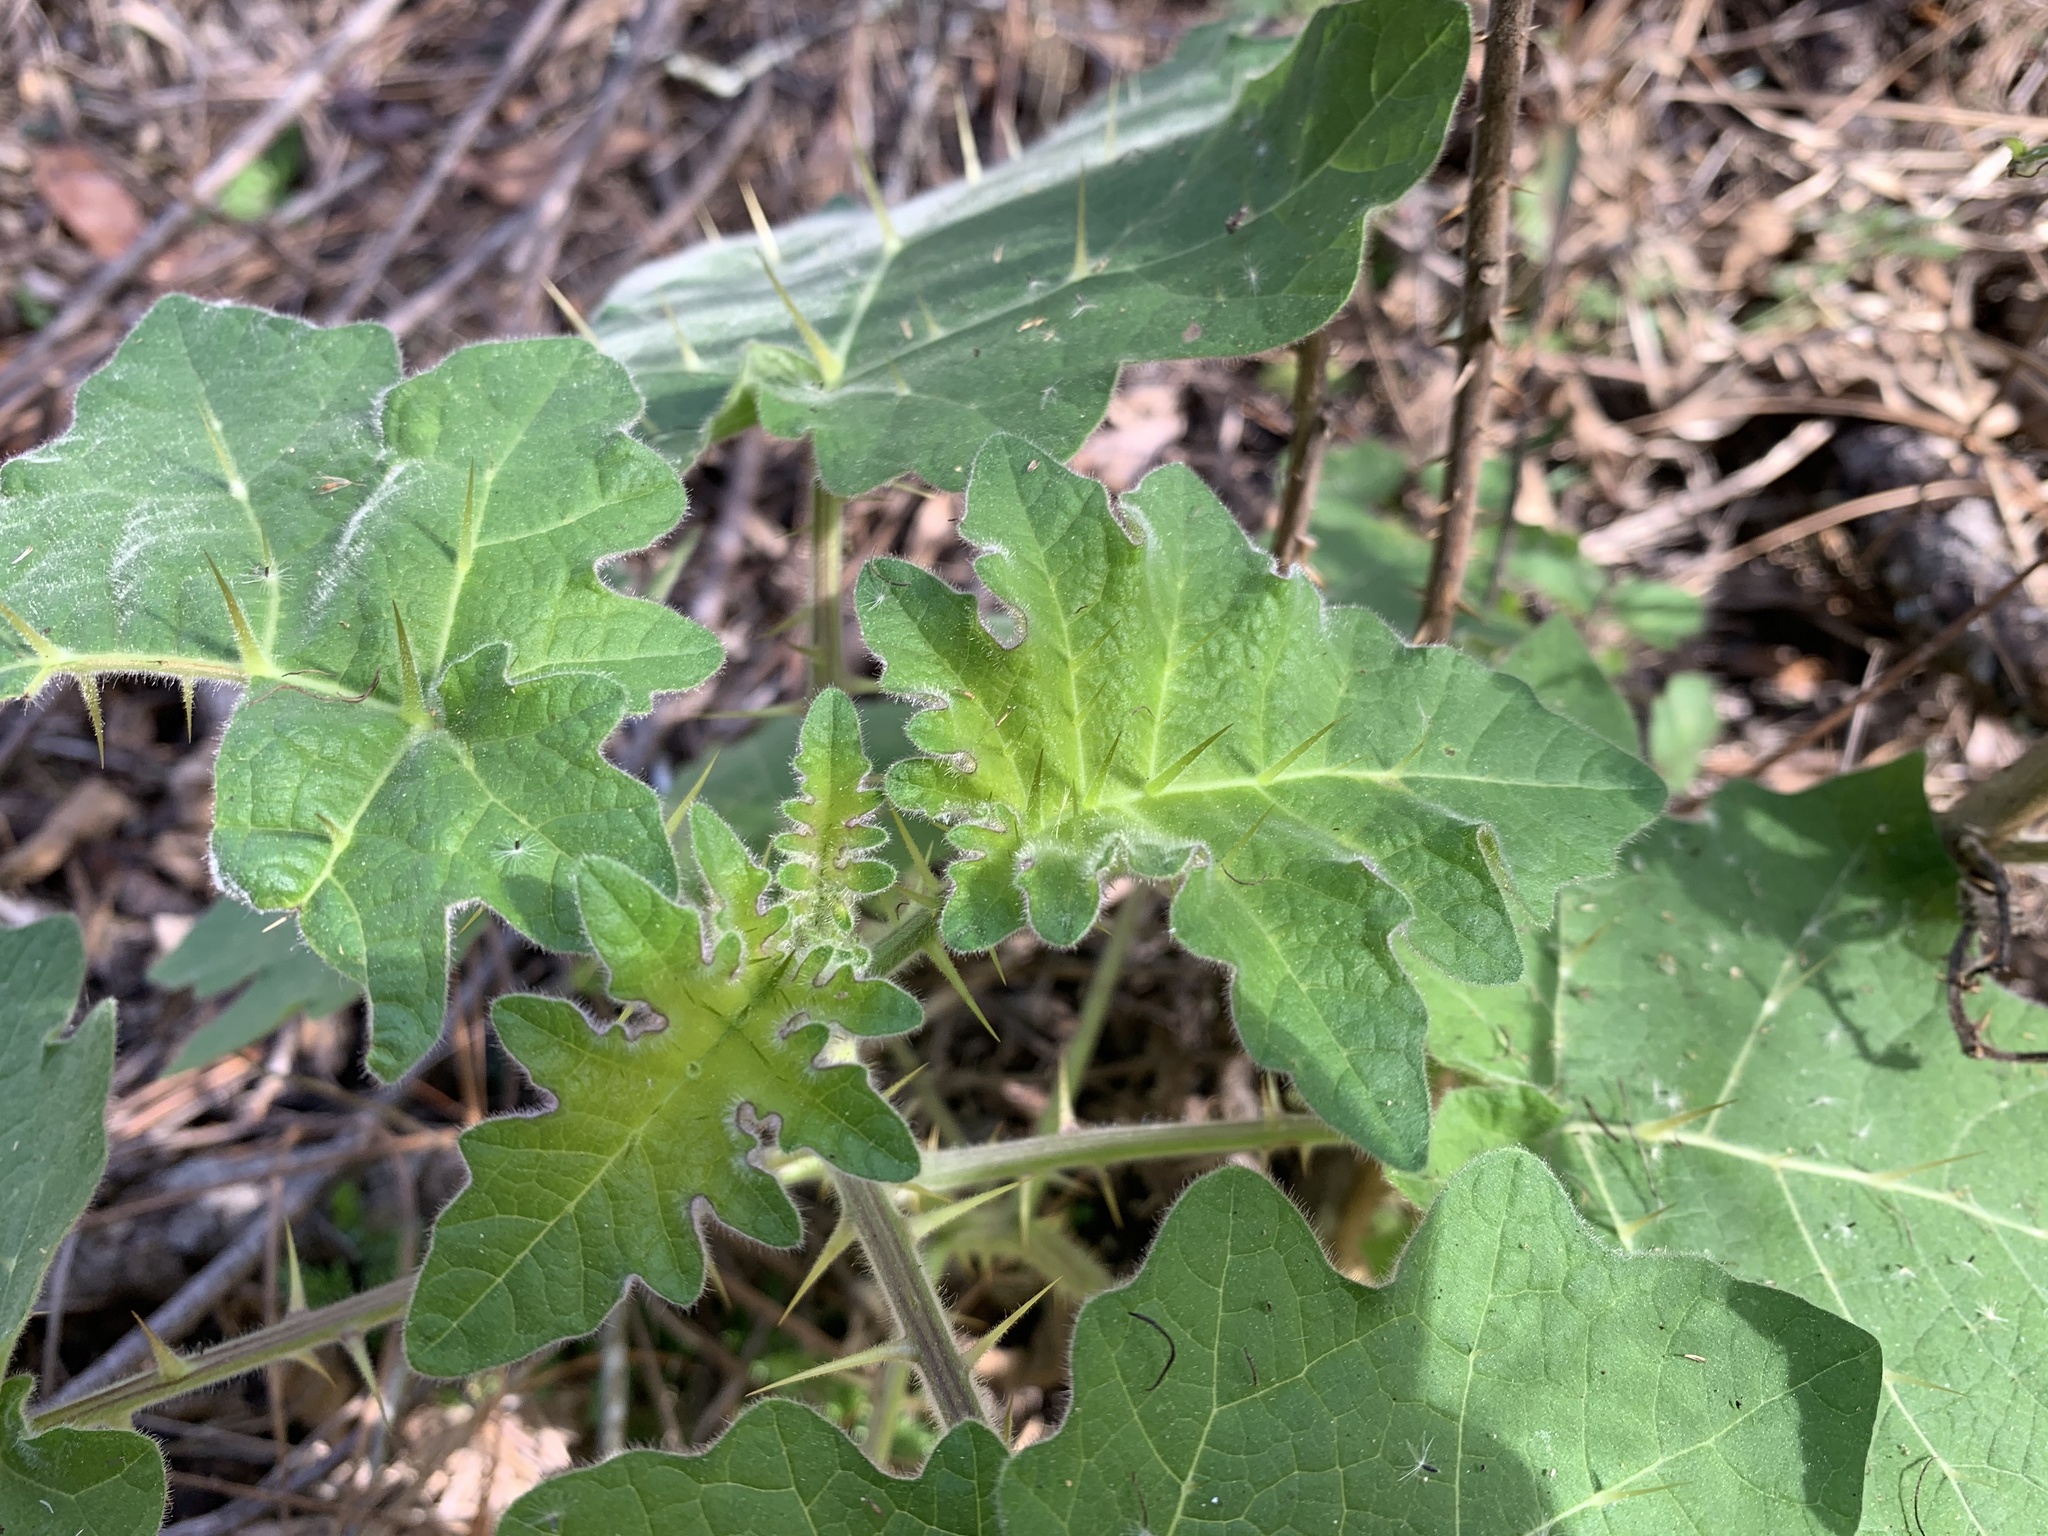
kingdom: Plantae
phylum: Tracheophyta
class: Magnoliopsida
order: Solanales
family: Solanaceae
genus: Solanum
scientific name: Solanum viarum
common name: Tropical soda apple
